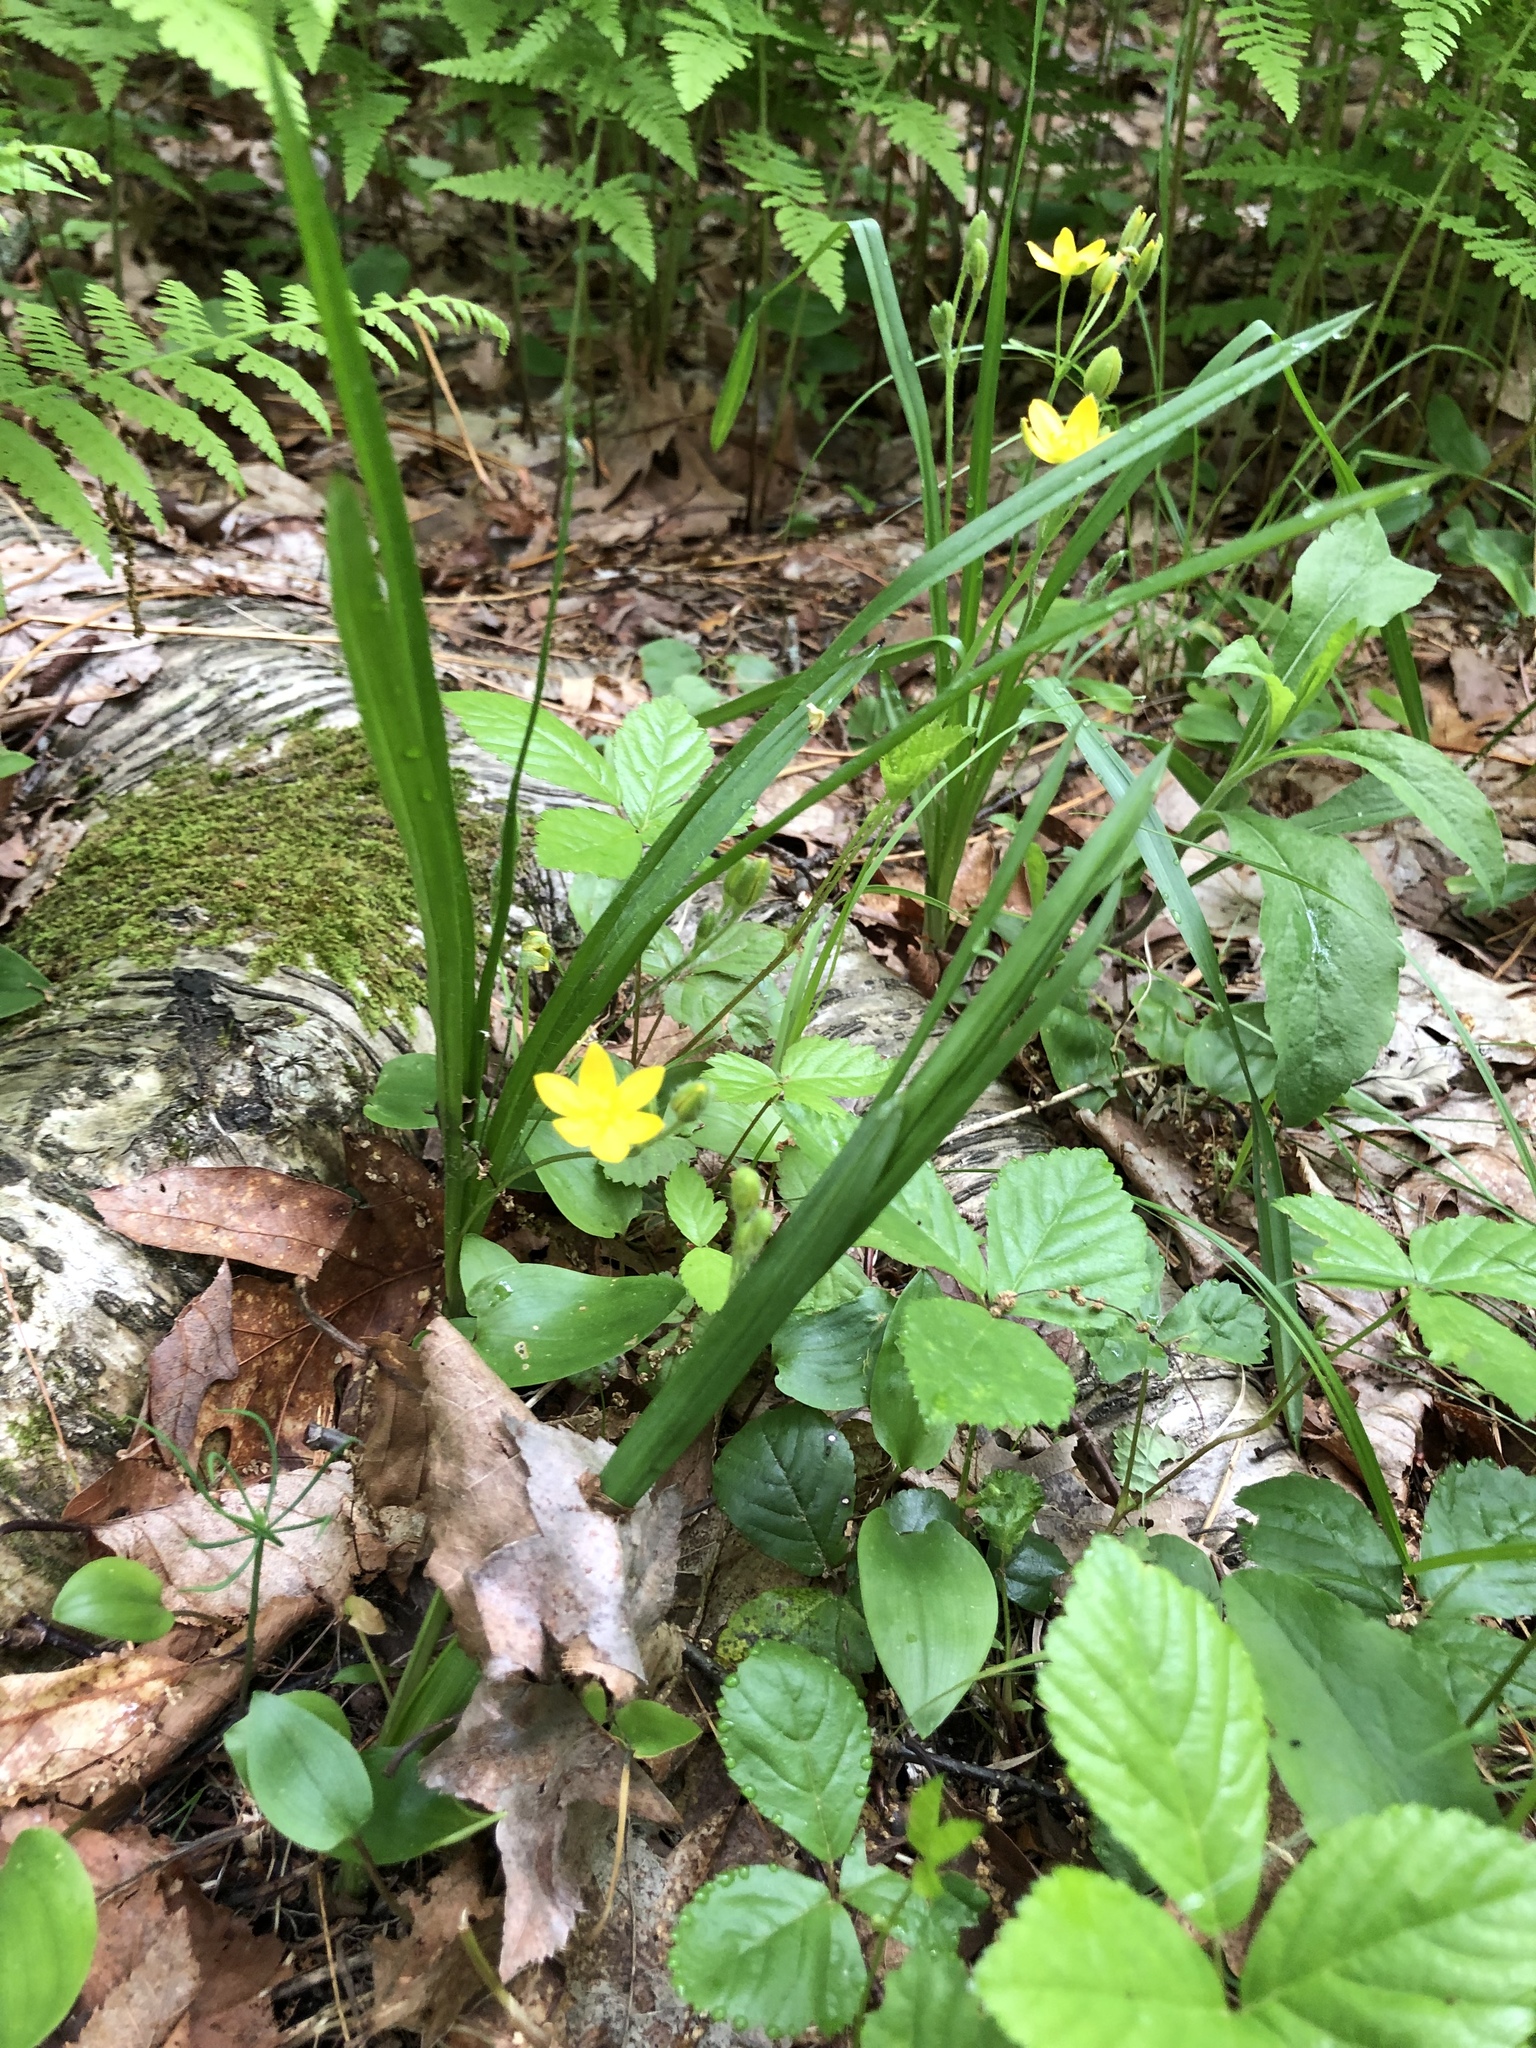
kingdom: Plantae
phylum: Tracheophyta
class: Liliopsida
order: Asparagales
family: Hypoxidaceae
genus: Hypoxis
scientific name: Hypoxis hirsuta
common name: Common goldstar
